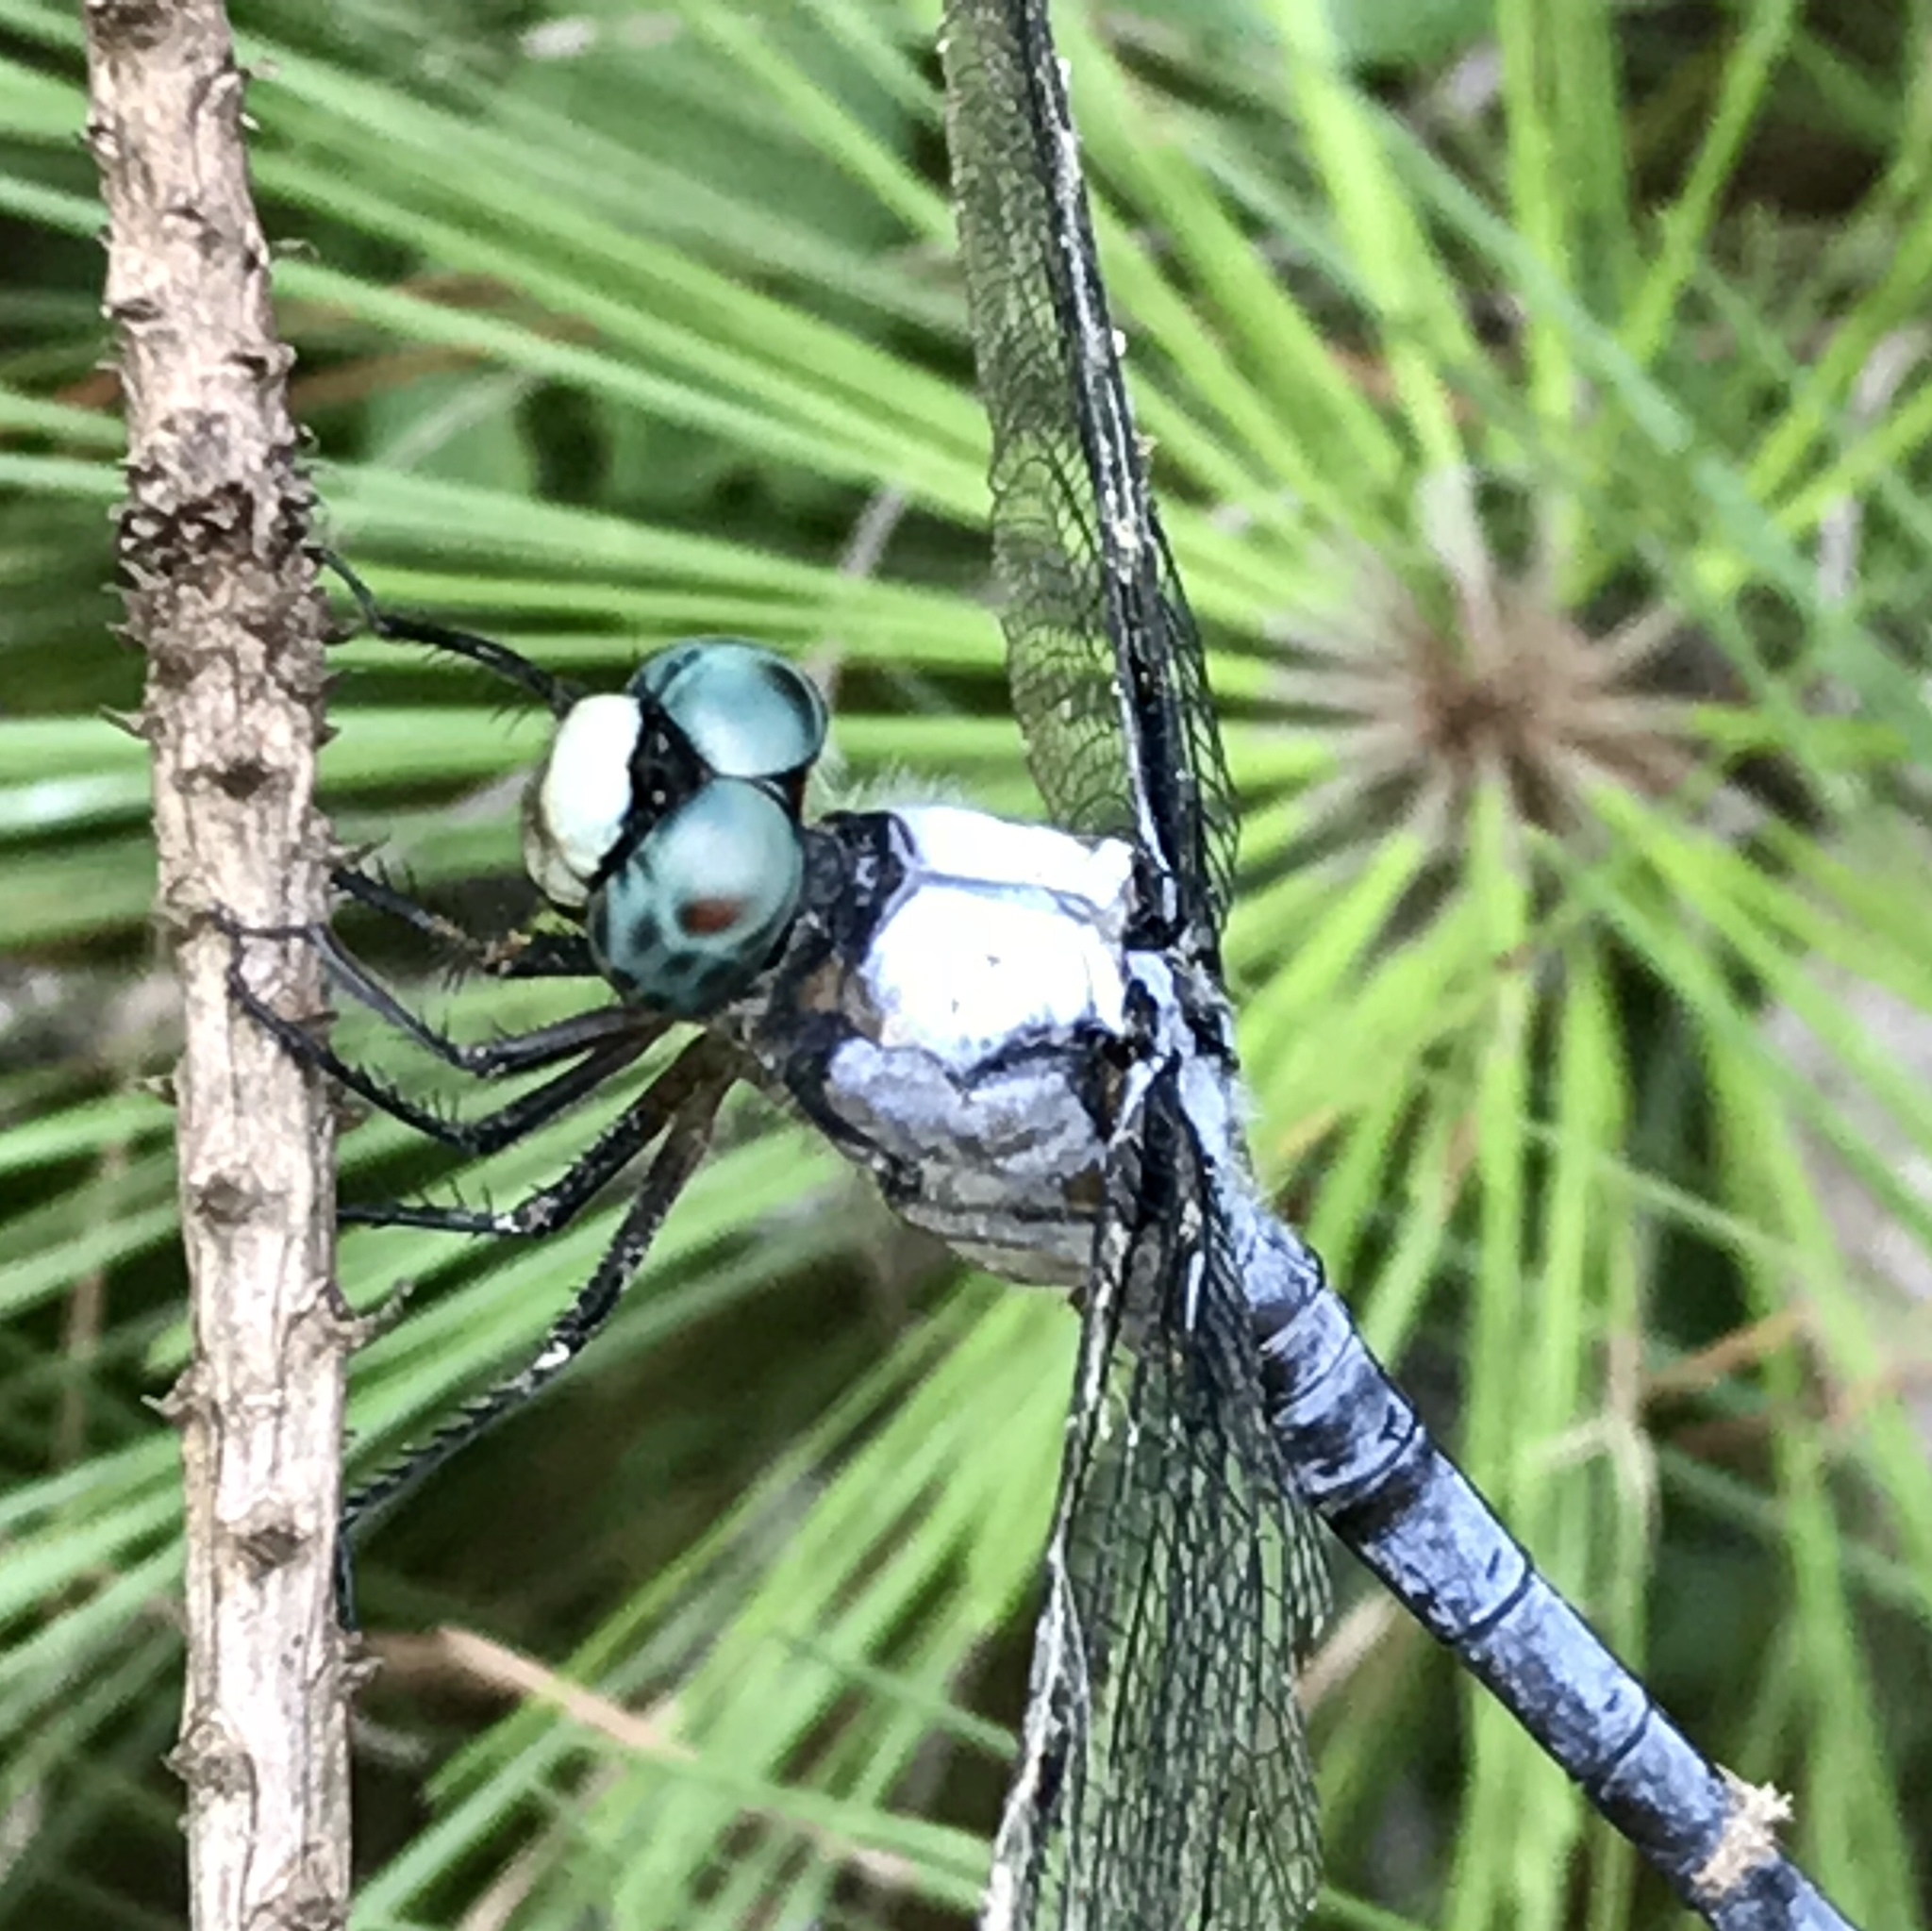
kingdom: Animalia
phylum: Arthropoda
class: Insecta
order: Odonata
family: Libellulidae
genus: Libellula
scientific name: Libellula vibrans
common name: Great blue skimmer
